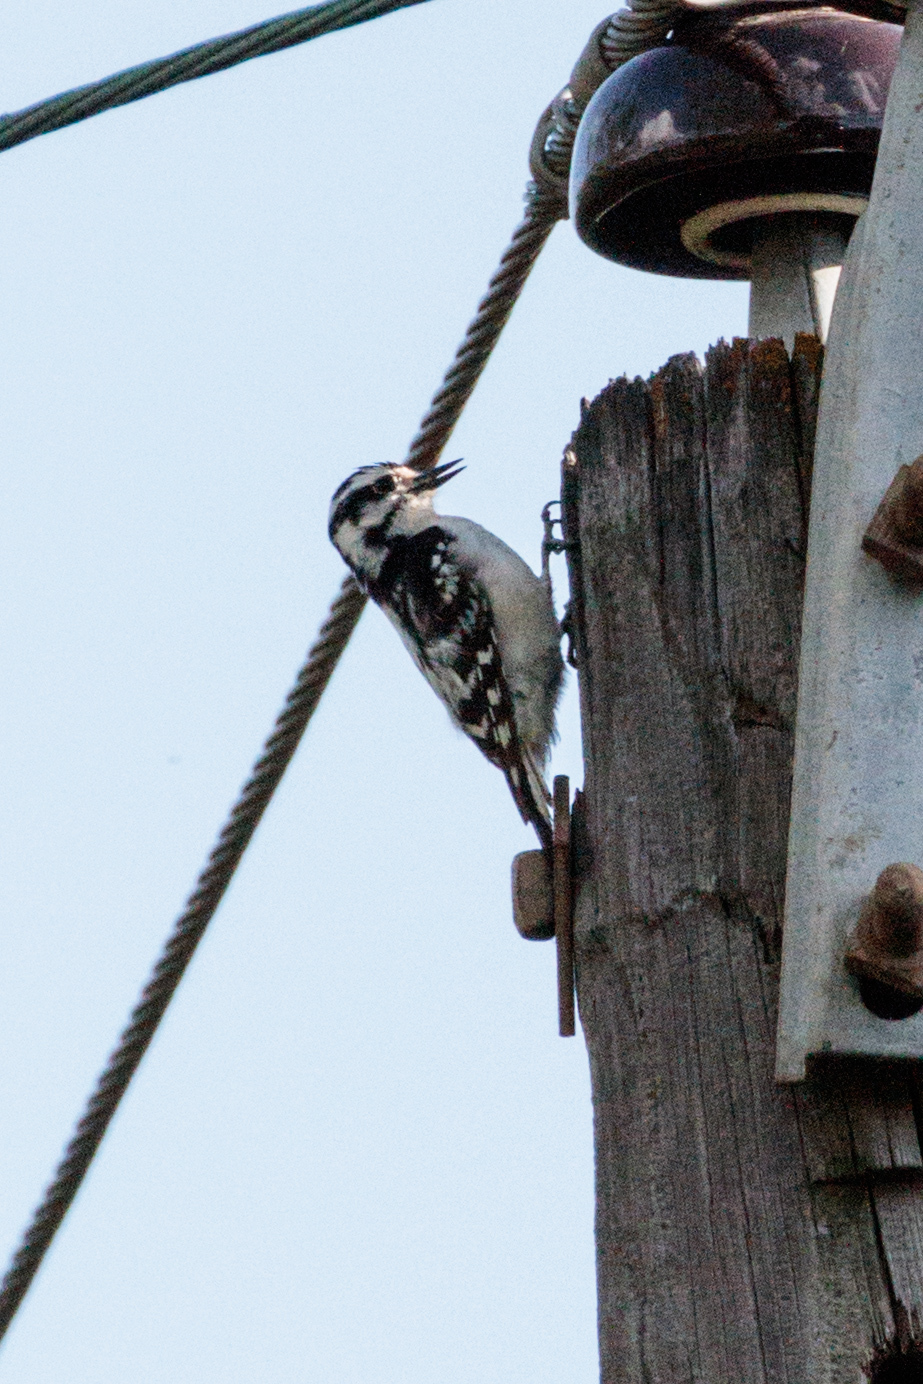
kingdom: Animalia
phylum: Chordata
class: Aves
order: Piciformes
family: Picidae
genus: Dryobates
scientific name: Dryobates pubescens
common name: Downy woodpecker
